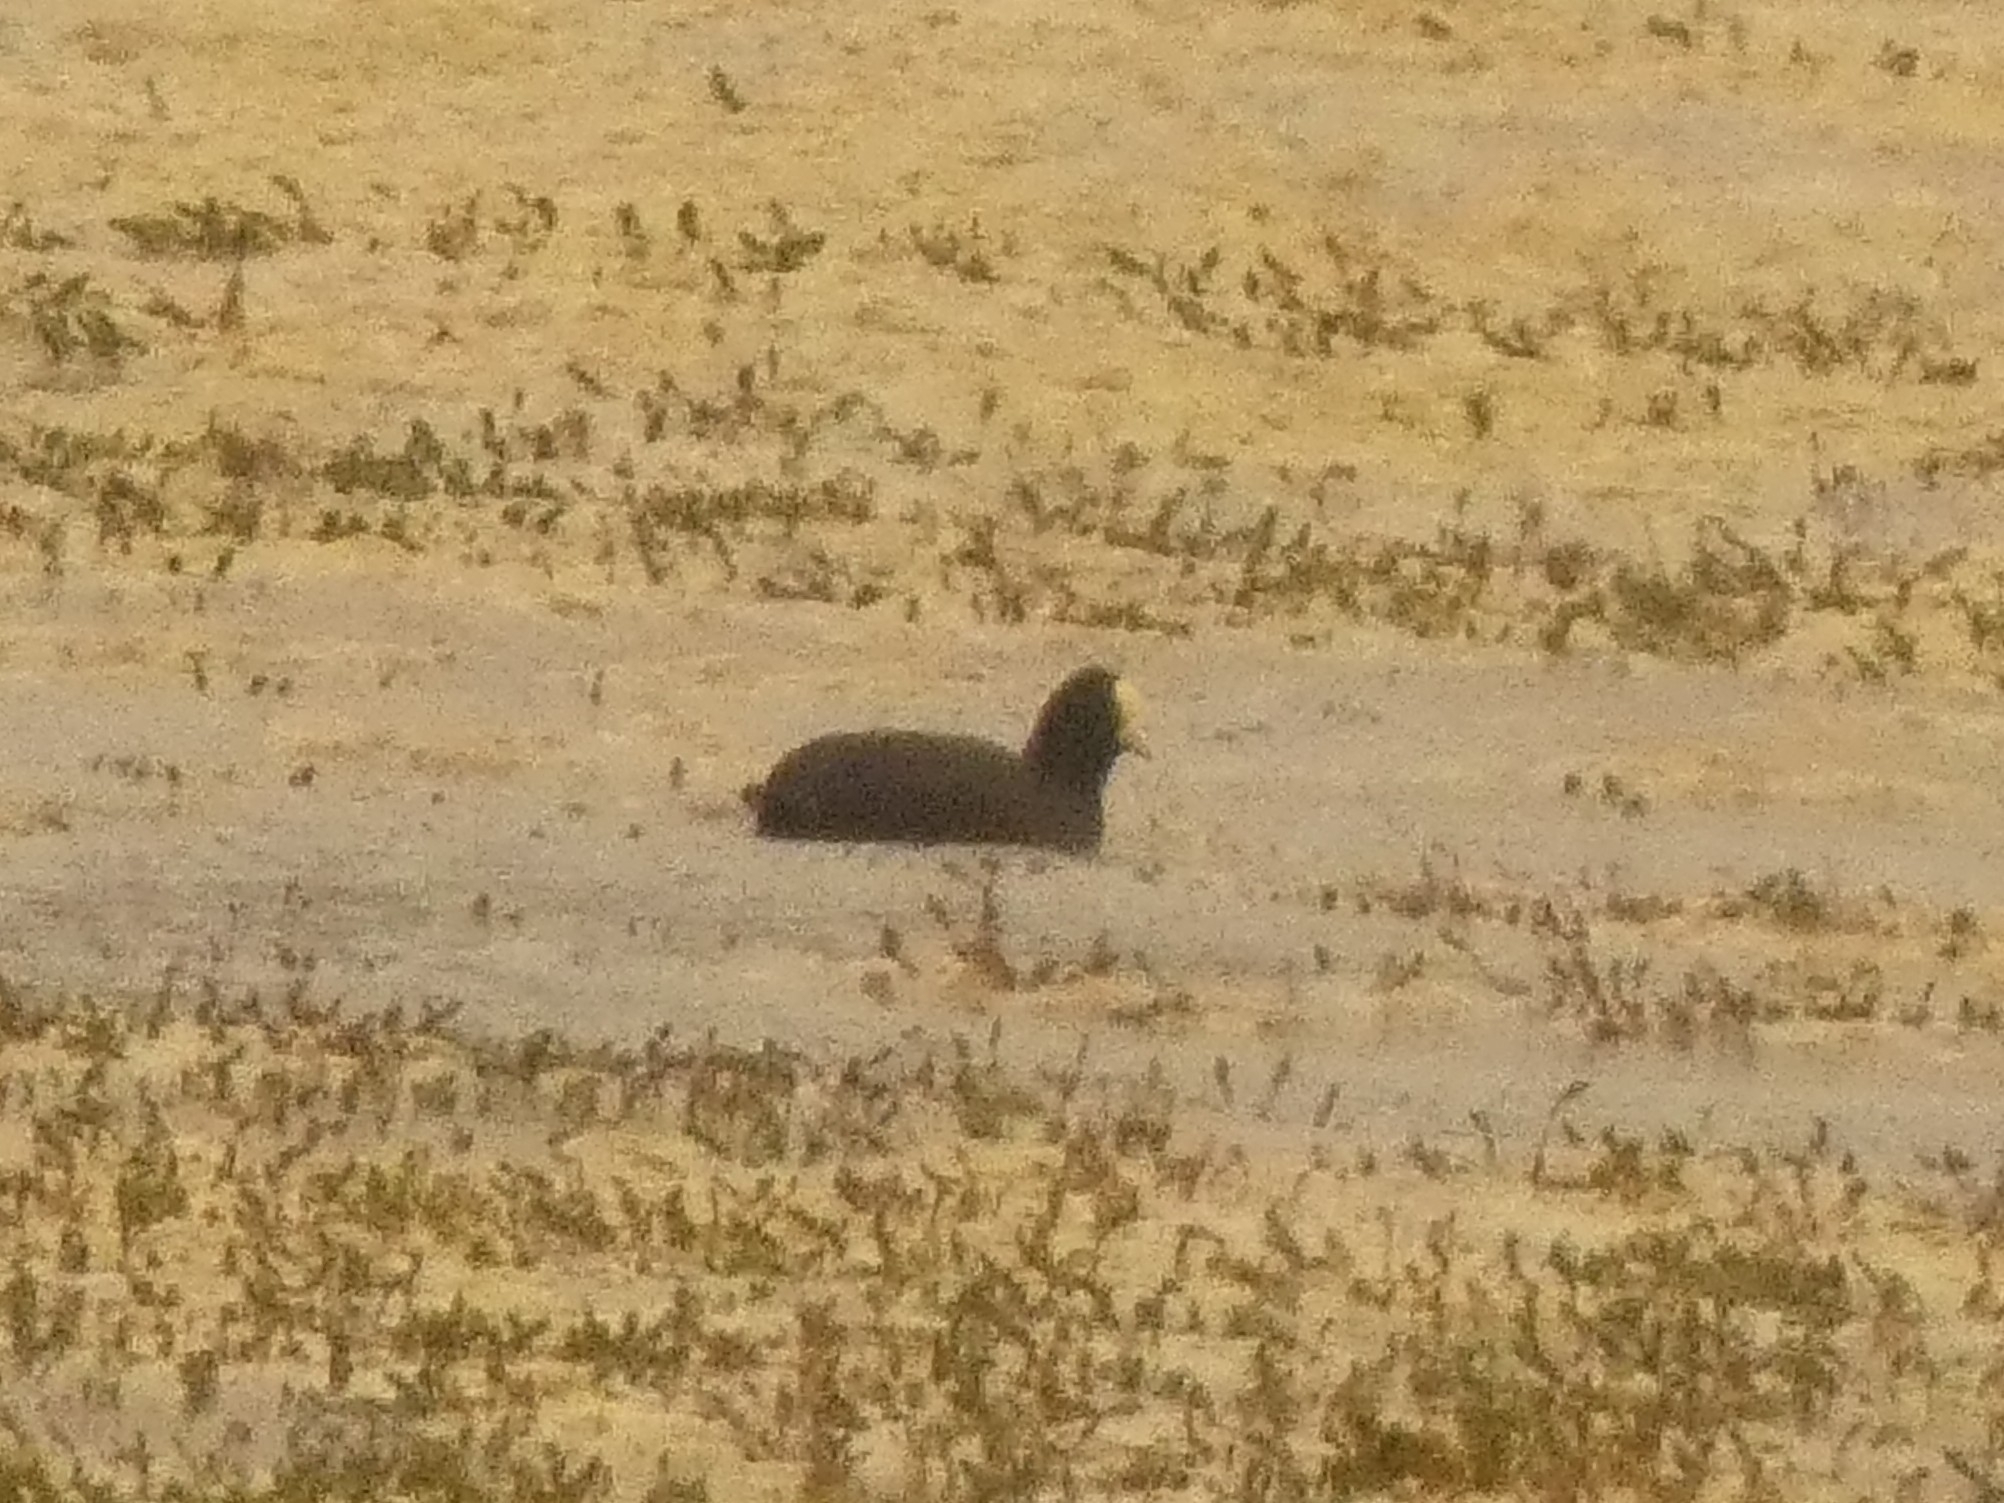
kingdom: Animalia
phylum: Chordata
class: Aves
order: Gruiformes
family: Rallidae
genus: Fulica
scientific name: Fulica leucoptera
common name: White-winged coot
